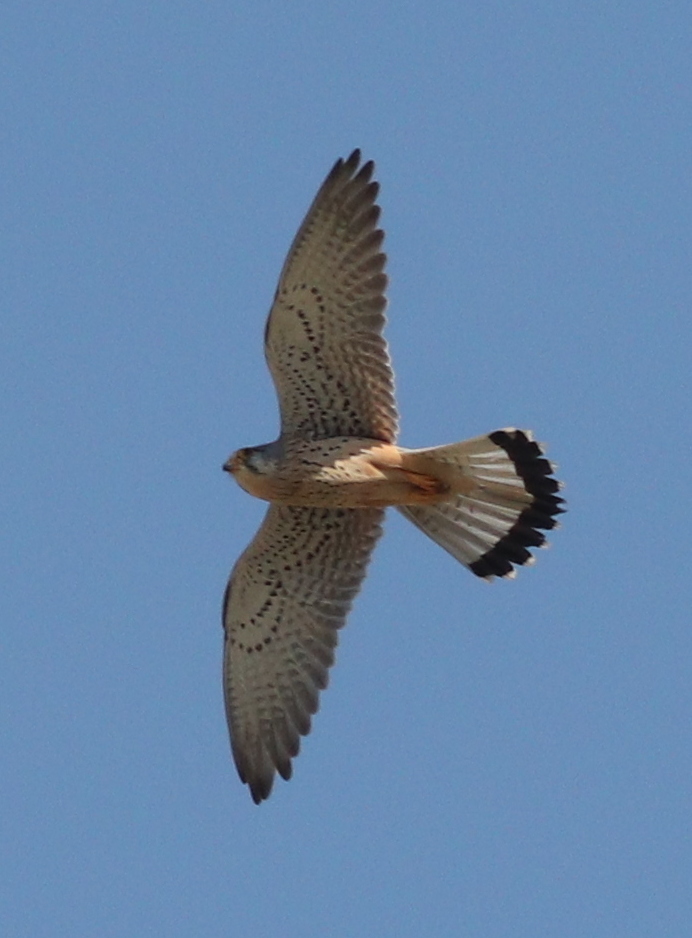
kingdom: Animalia
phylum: Chordata
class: Aves
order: Falconiformes
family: Falconidae
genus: Falco
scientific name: Falco tinnunculus
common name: Common kestrel
